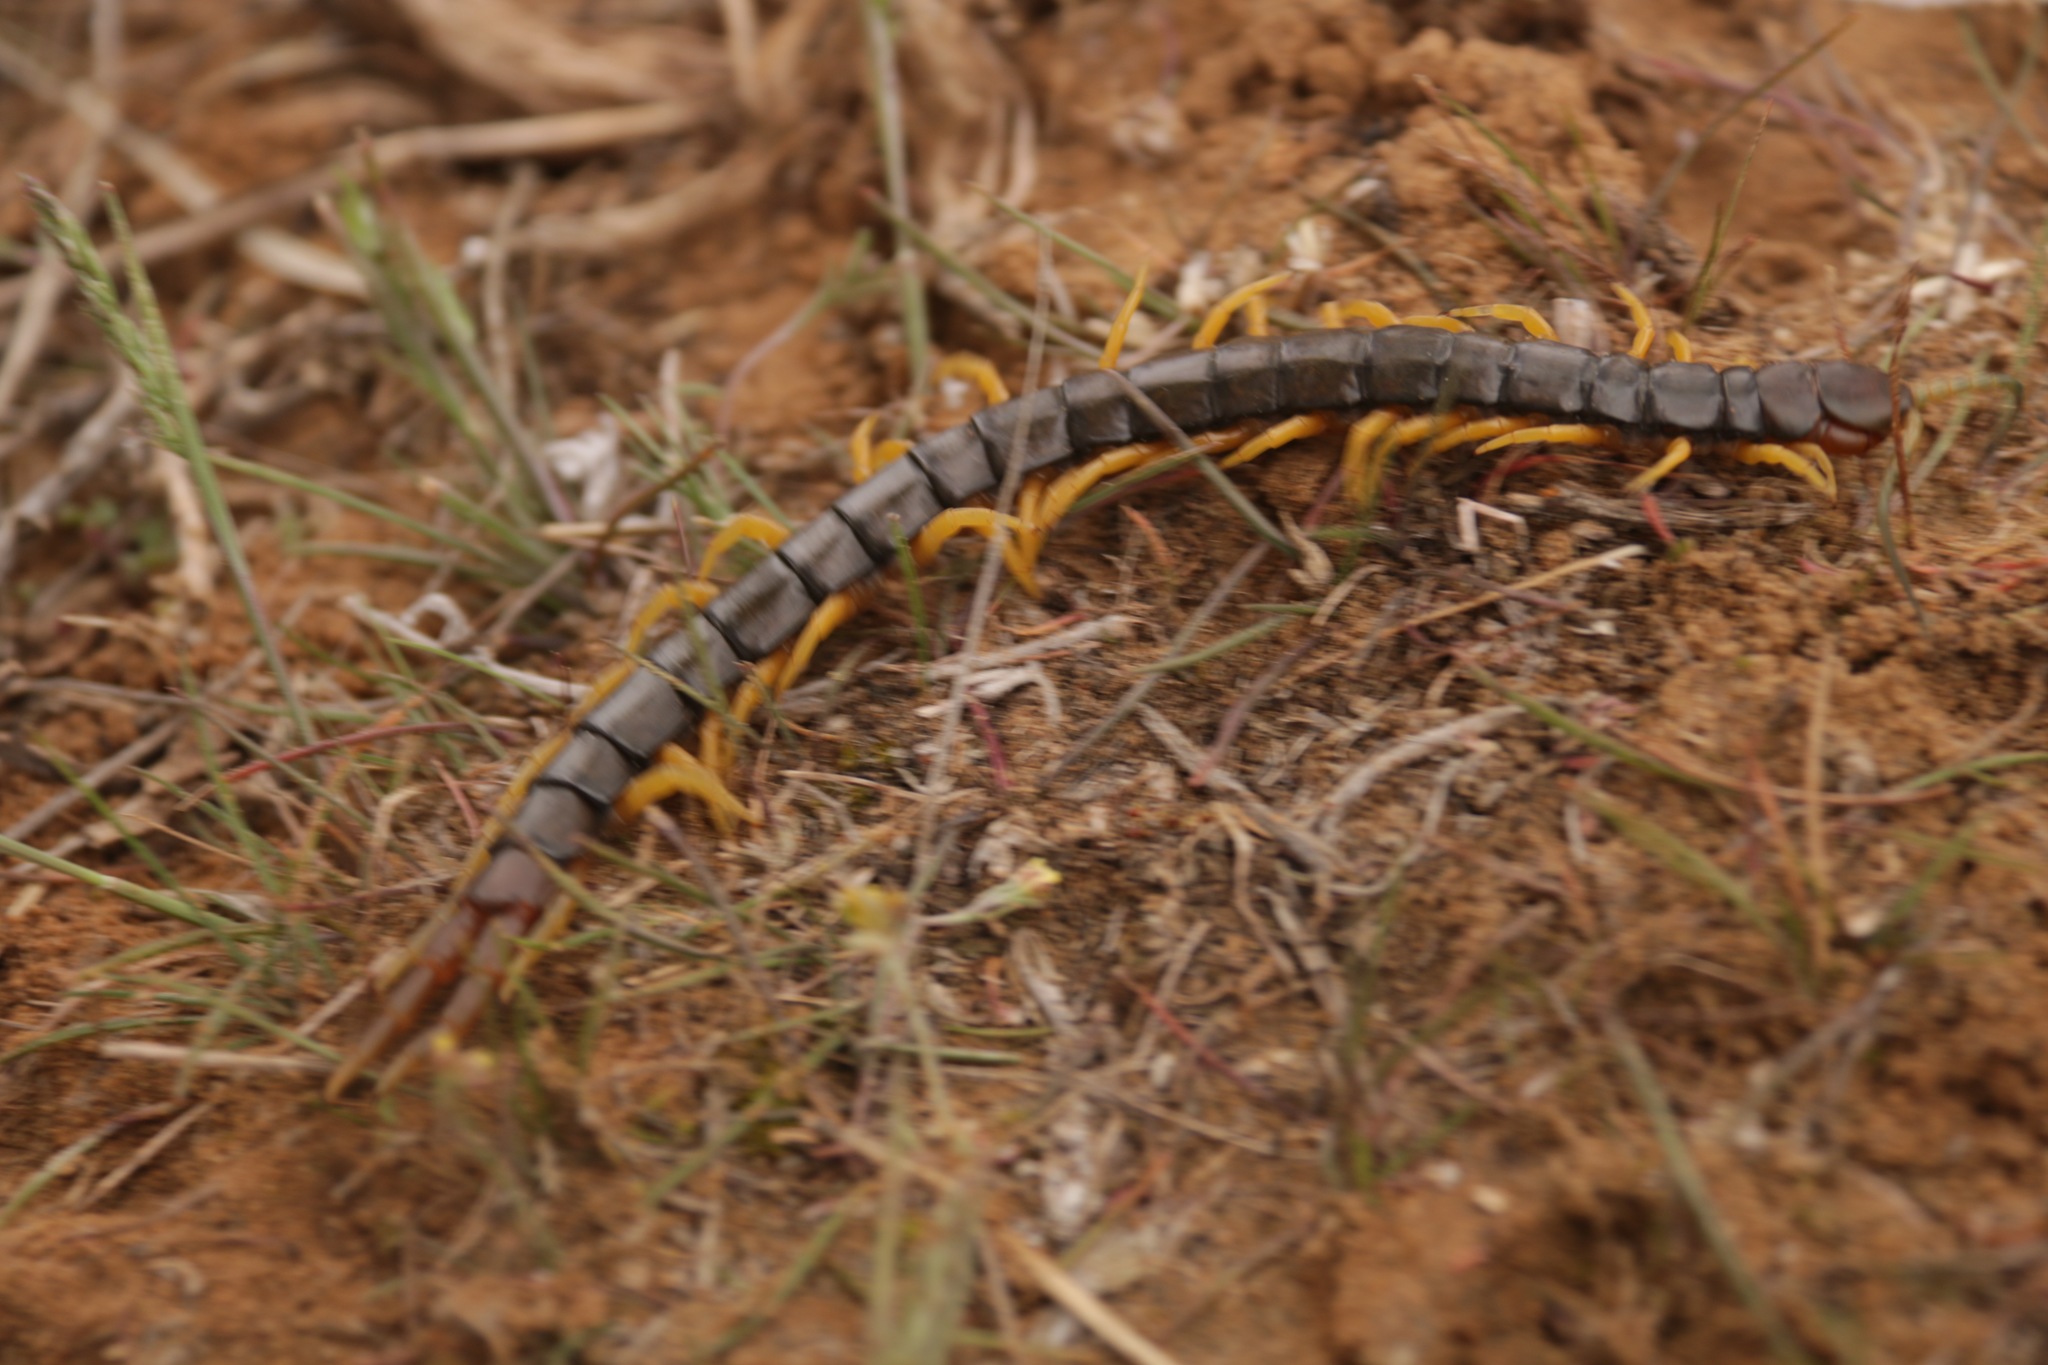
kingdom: Animalia
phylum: Arthropoda
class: Chilopoda
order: Scolopendromorpha
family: Scolopendridae
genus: Scolopendra
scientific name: Scolopendra cingulata
